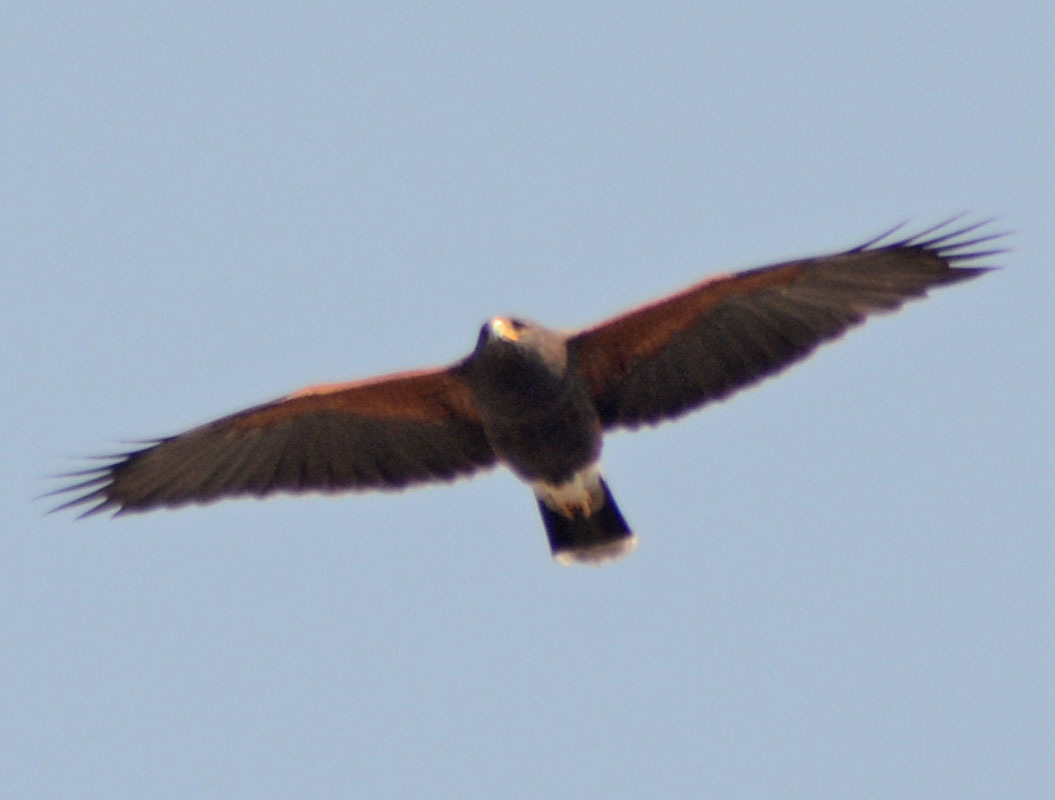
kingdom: Animalia
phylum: Chordata
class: Aves
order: Accipitriformes
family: Accipitridae
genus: Parabuteo
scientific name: Parabuteo unicinctus
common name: Harris's hawk
